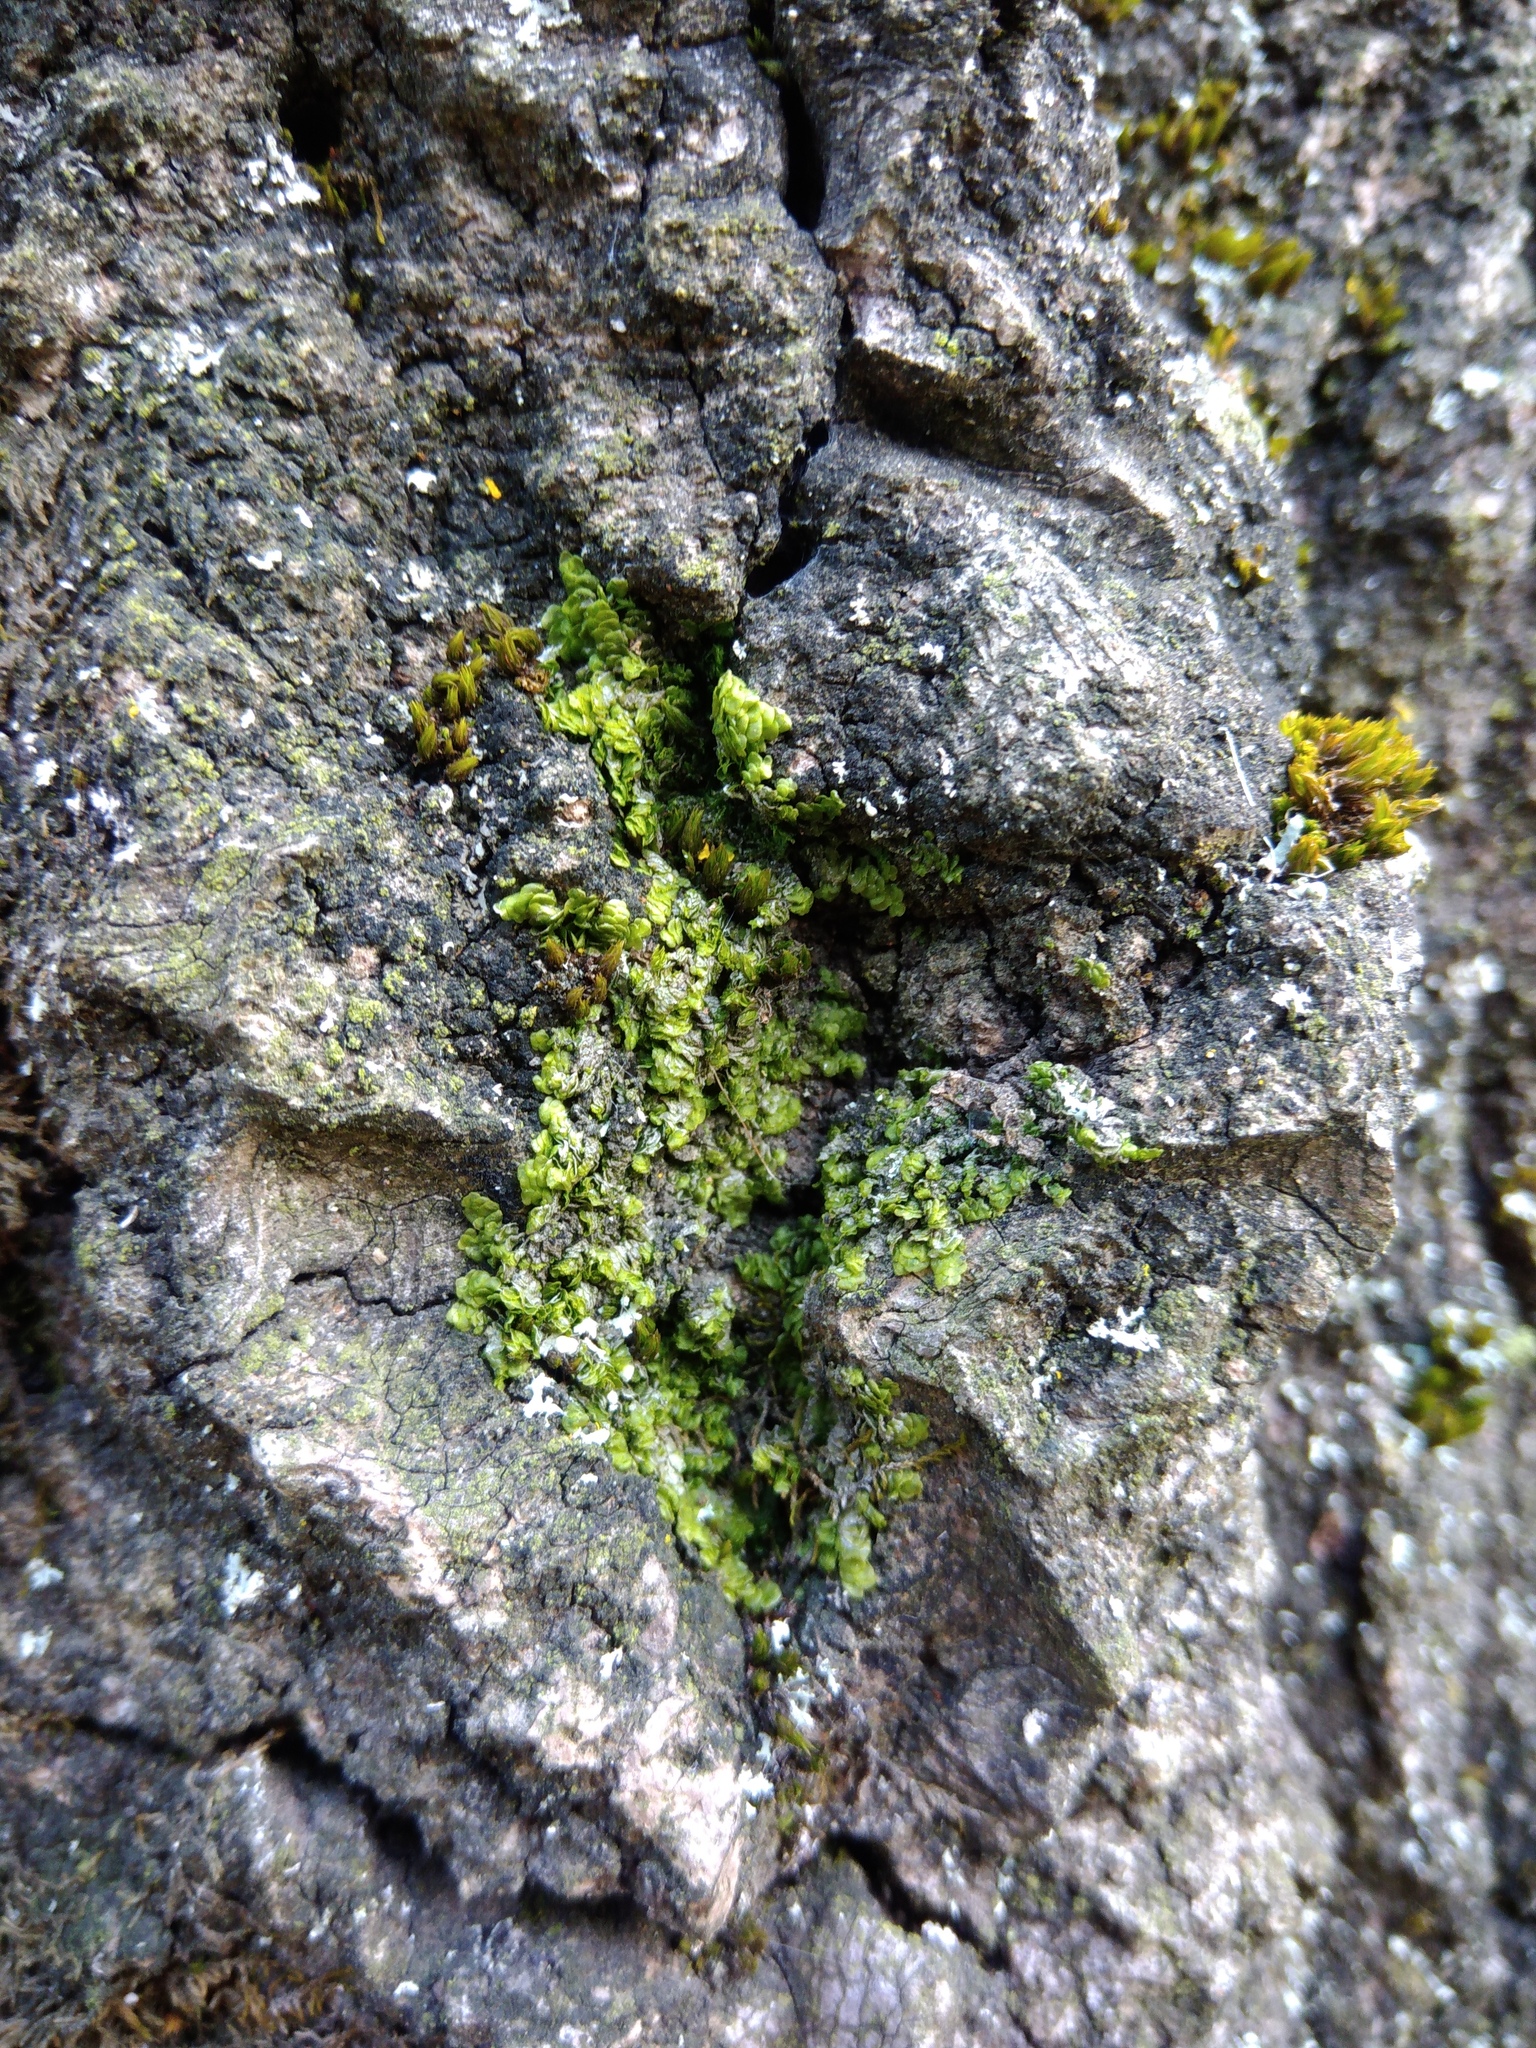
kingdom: Plantae
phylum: Marchantiophyta
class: Jungermanniopsida
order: Porellales
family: Radulaceae
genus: Radula
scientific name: Radula complanata
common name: Flat-leaved scalewort
